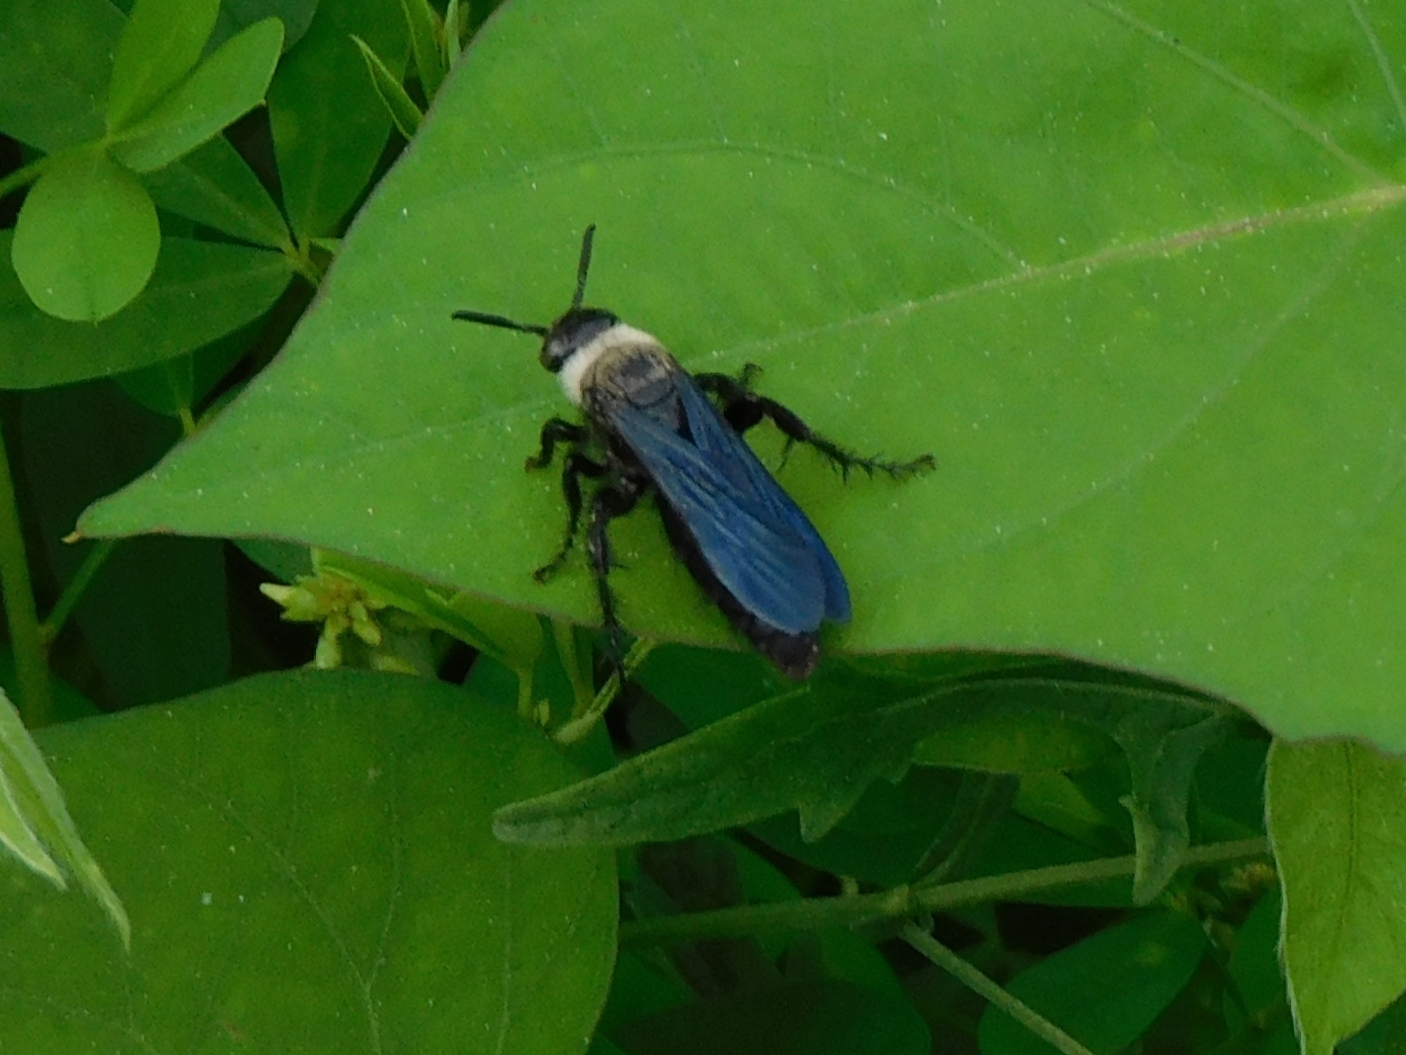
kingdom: Animalia
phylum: Arthropoda
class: Insecta
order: Hymenoptera
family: Scoliidae
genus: Campsomeriella
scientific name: Campsomeriella collaris
